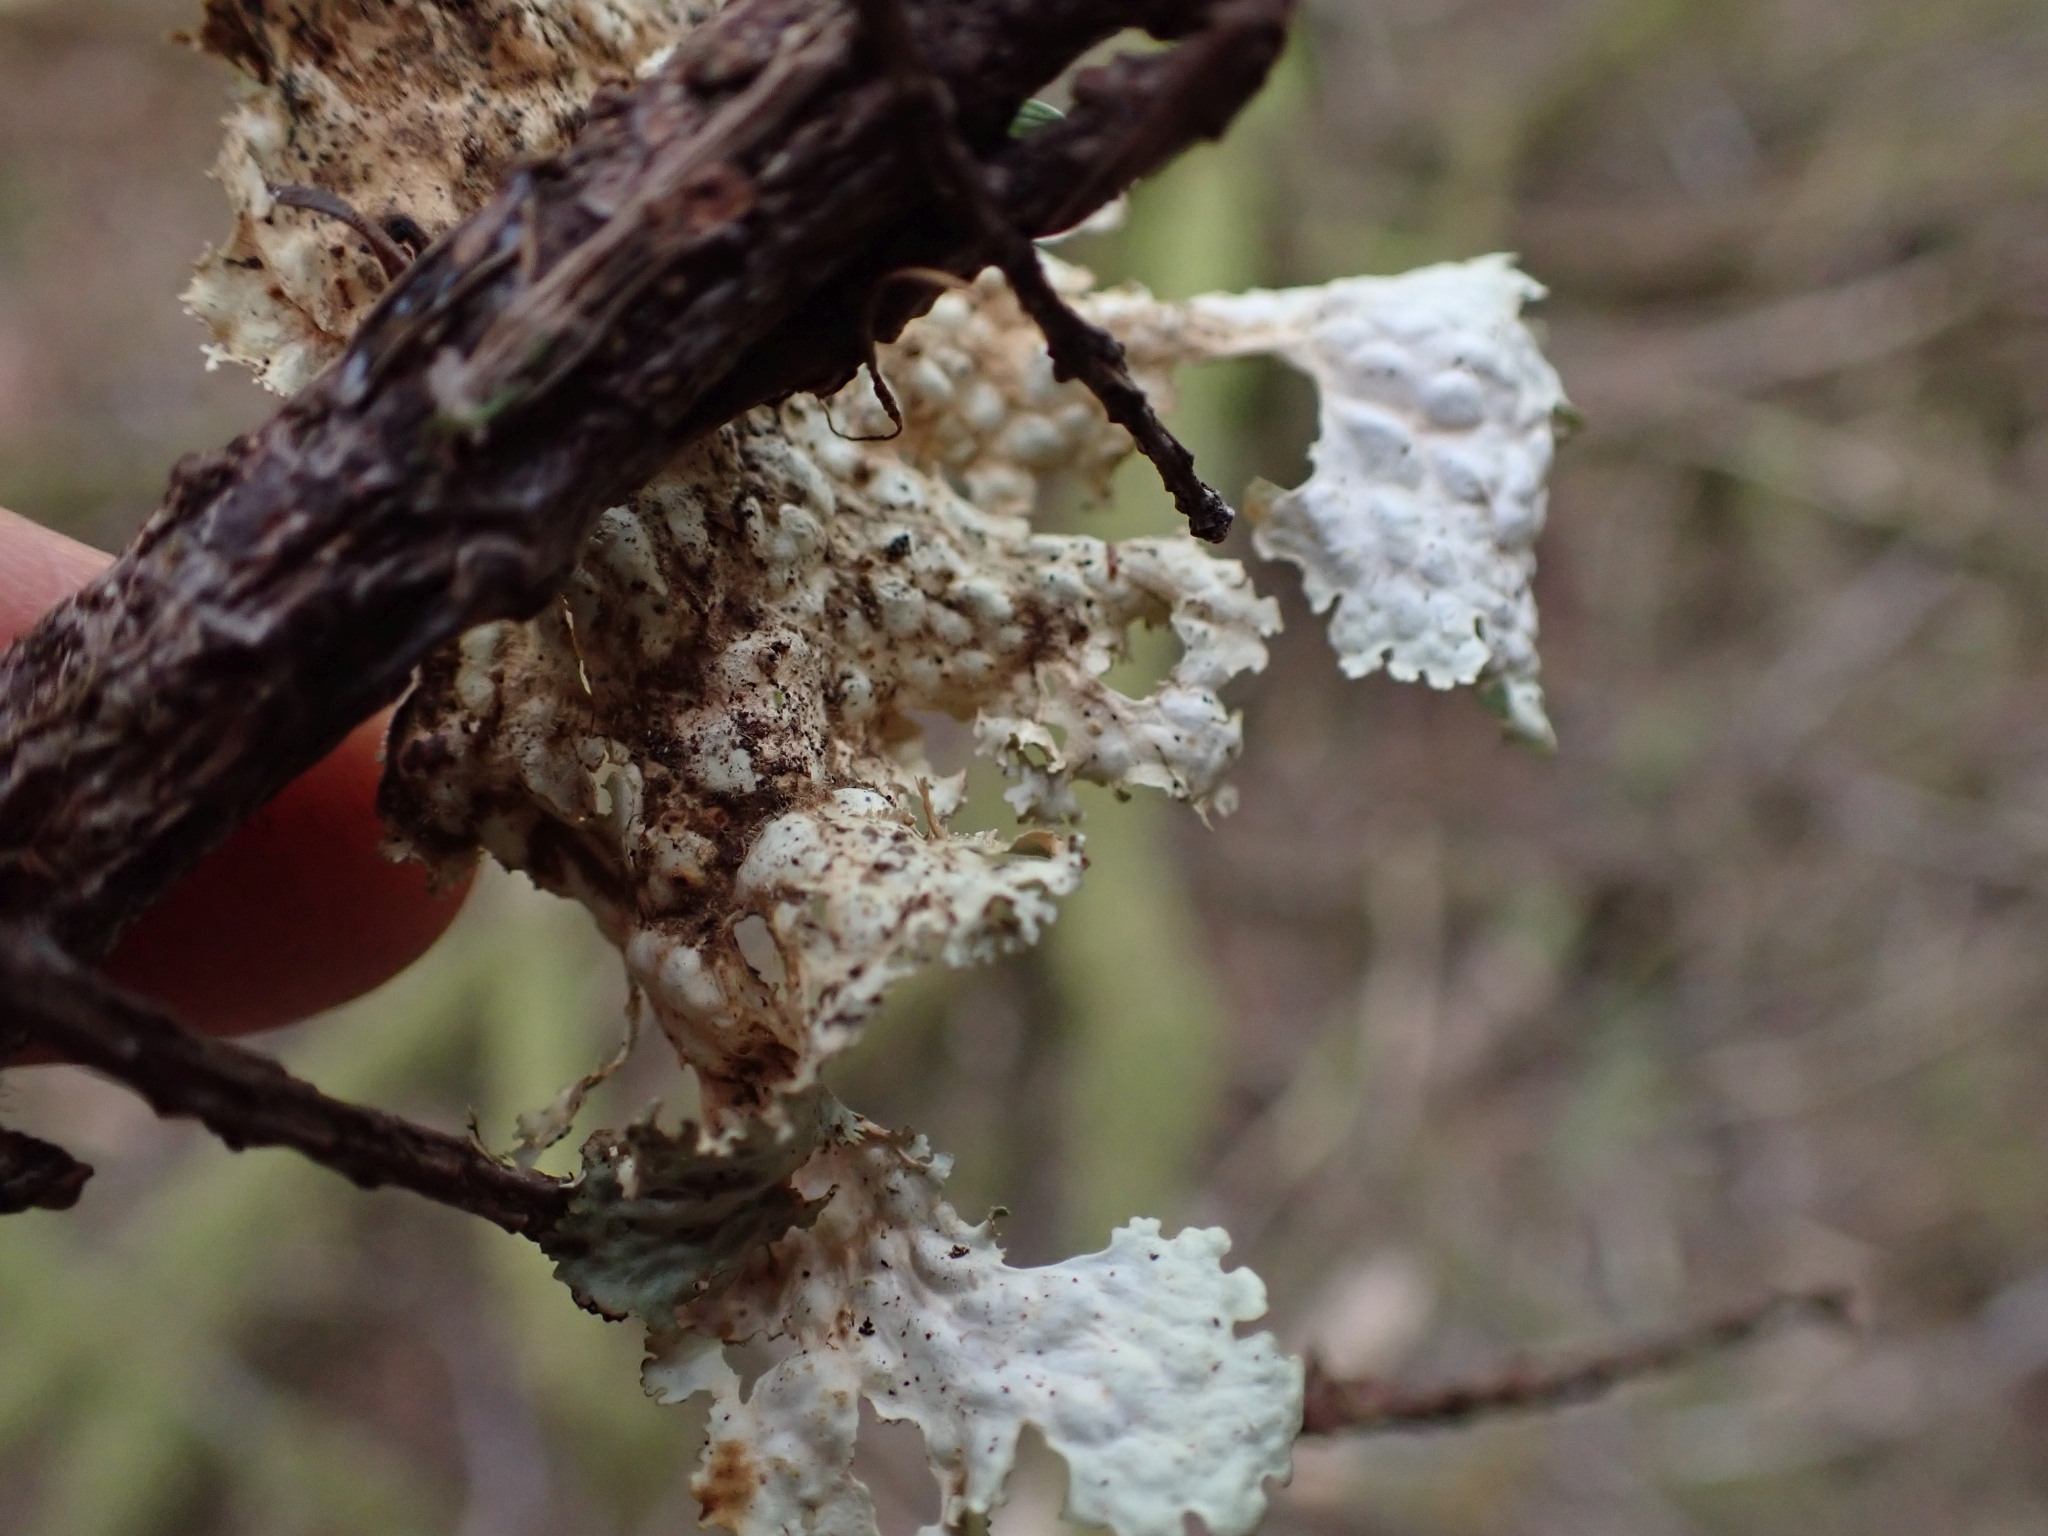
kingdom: Fungi
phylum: Ascomycota
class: Lecanoromycetes
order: Peltigerales
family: Lobariaceae
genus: Lobaria
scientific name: Lobaria oregana
